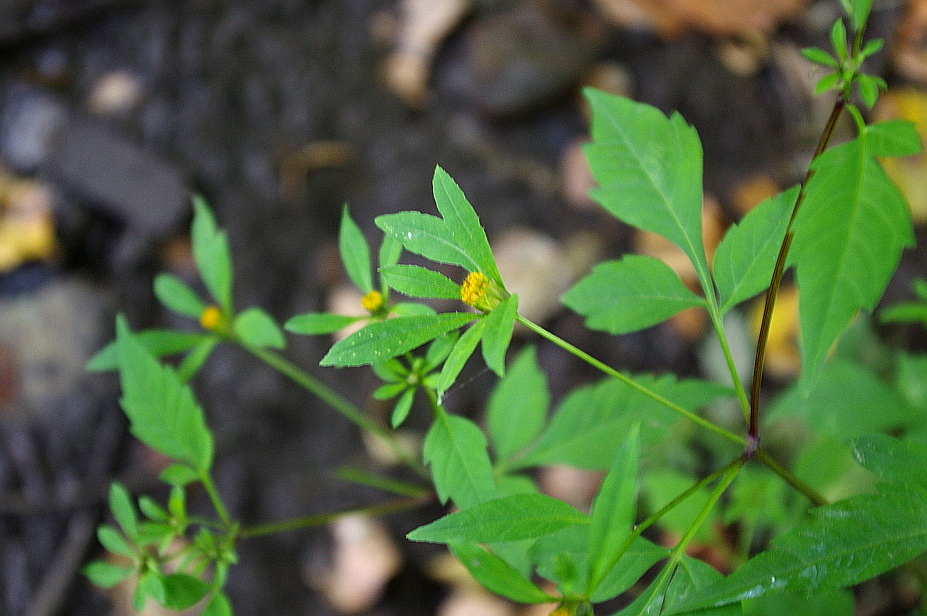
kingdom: Plantae
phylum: Tracheophyta
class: Magnoliopsida
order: Asterales
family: Asteraceae
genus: Bidens
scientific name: Bidens frondosa
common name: Beggarticks
